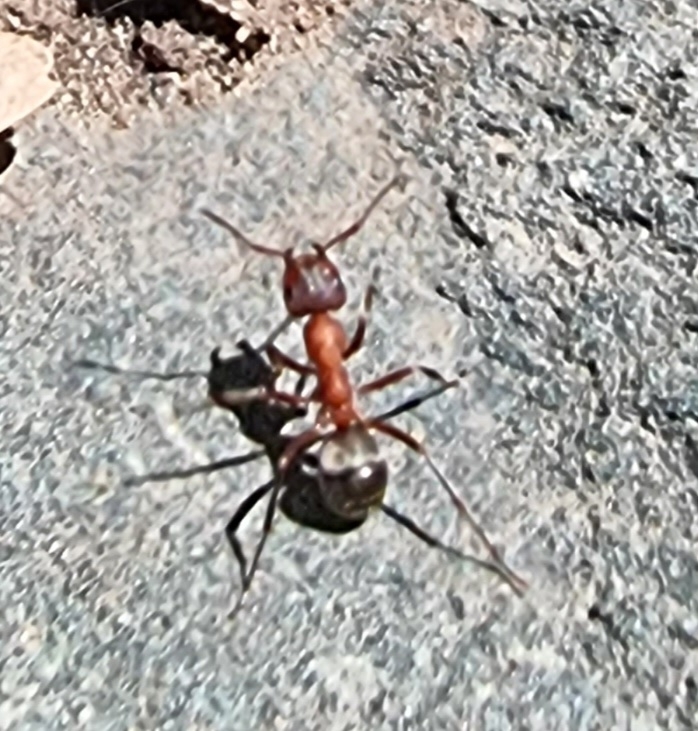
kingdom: Animalia
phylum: Arthropoda
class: Insecta
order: Hymenoptera
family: Formicidae
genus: Formica
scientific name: Formica sanguinea
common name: Blood-red ant
